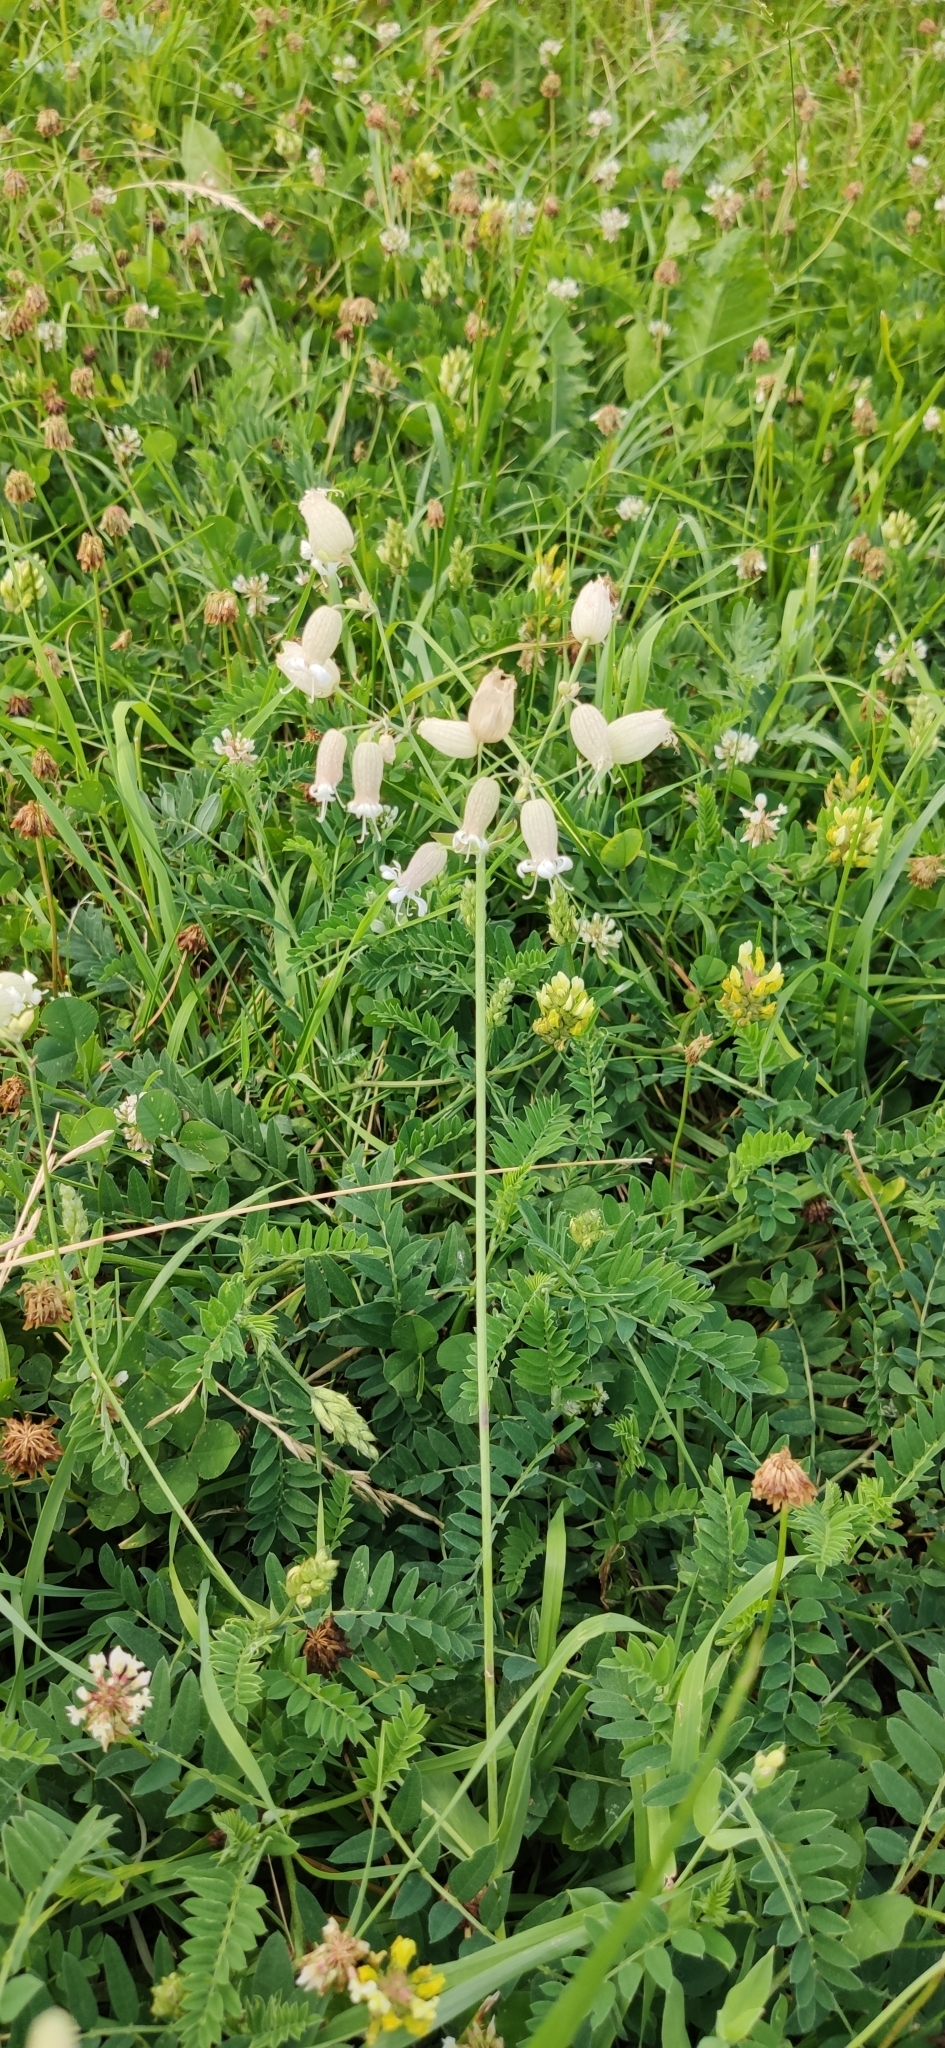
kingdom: Plantae
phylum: Tracheophyta
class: Magnoliopsida
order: Caryophyllales
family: Caryophyllaceae
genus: Silene
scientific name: Silene vulgaris
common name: Bladder campion
